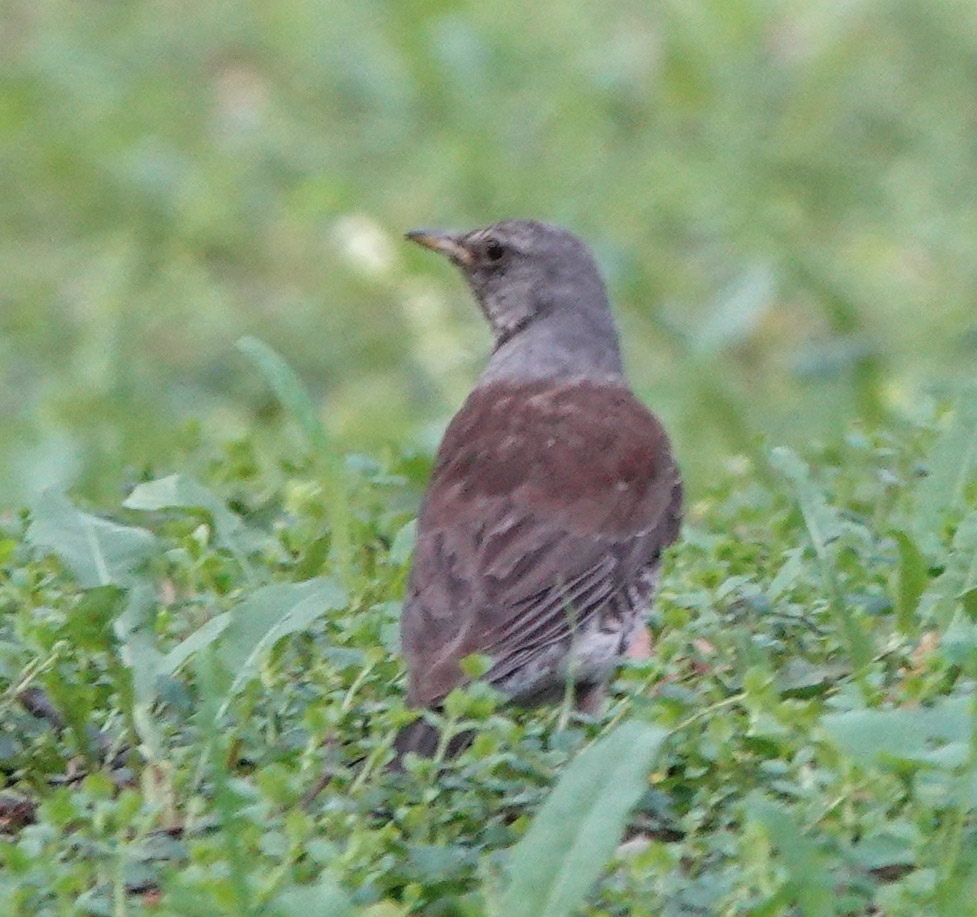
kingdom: Animalia
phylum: Chordata
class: Aves
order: Passeriformes
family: Turdidae
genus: Turdus
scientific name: Turdus pilaris
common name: Fieldfare
